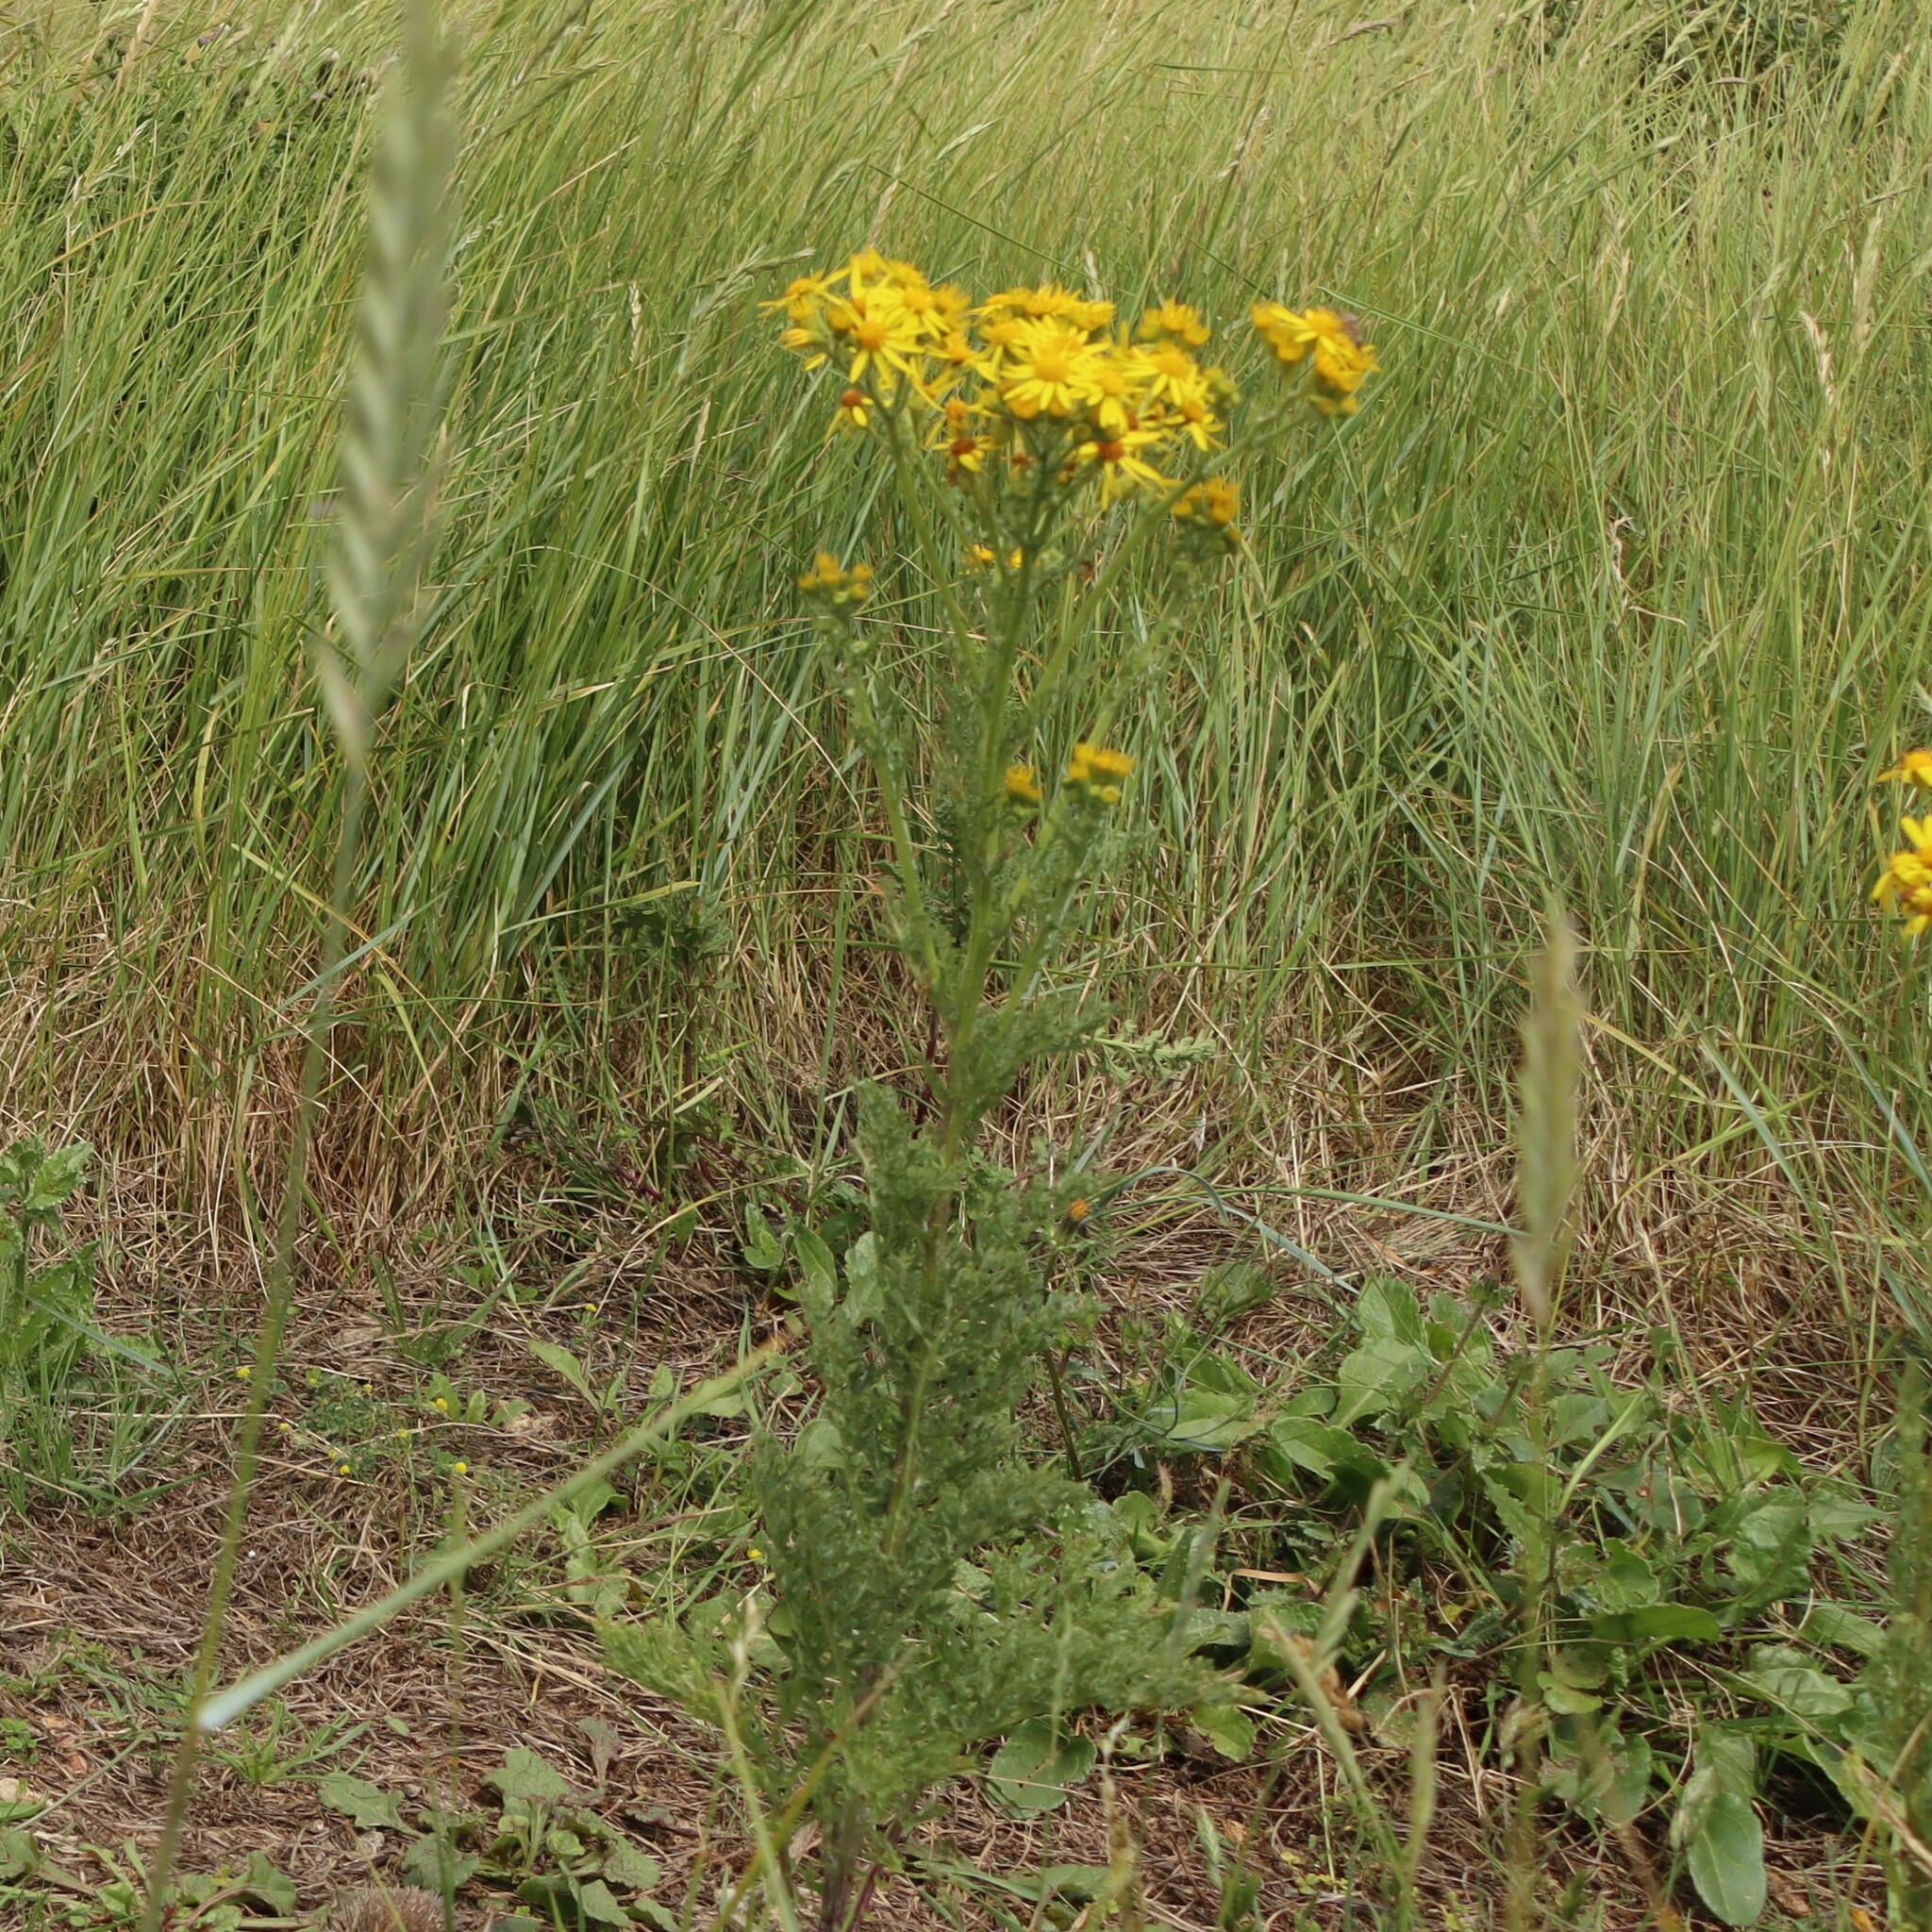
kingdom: Plantae
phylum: Tracheophyta
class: Magnoliopsida
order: Asterales
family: Asteraceae
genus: Jacobaea
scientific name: Jacobaea vulgaris
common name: Stinking willie
